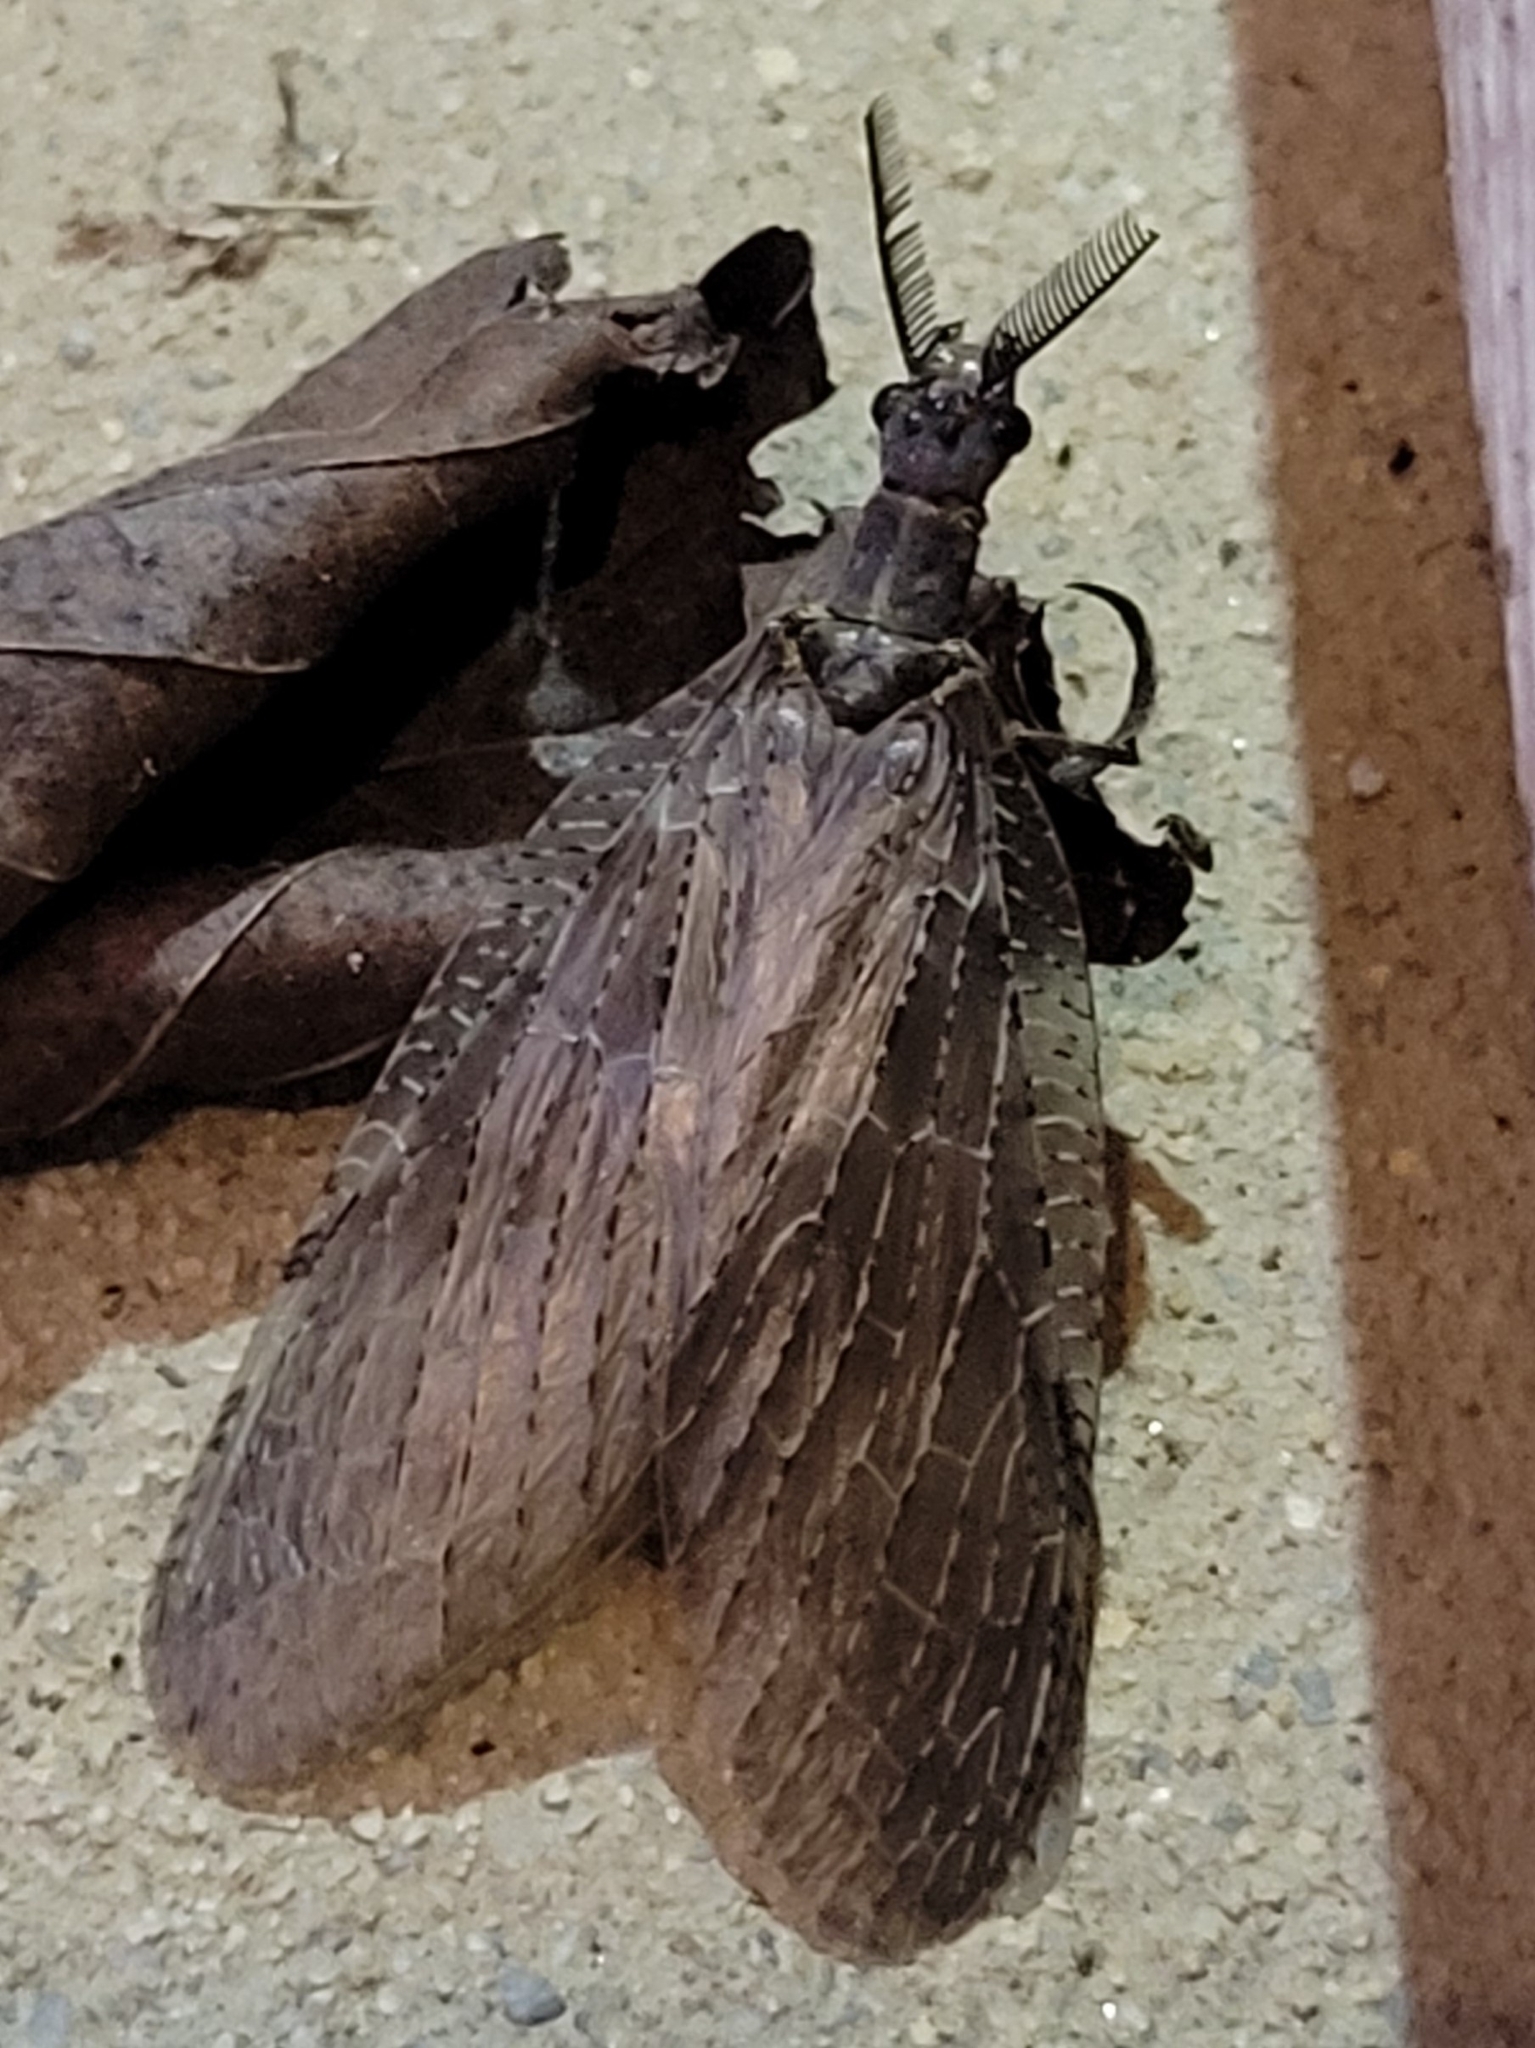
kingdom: Animalia
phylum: Arthropoda
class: Insecta
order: Megaloptera
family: Corydalidae
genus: Chauliodes
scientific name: Chauliodes pectinicornis
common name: Summer fishfly
